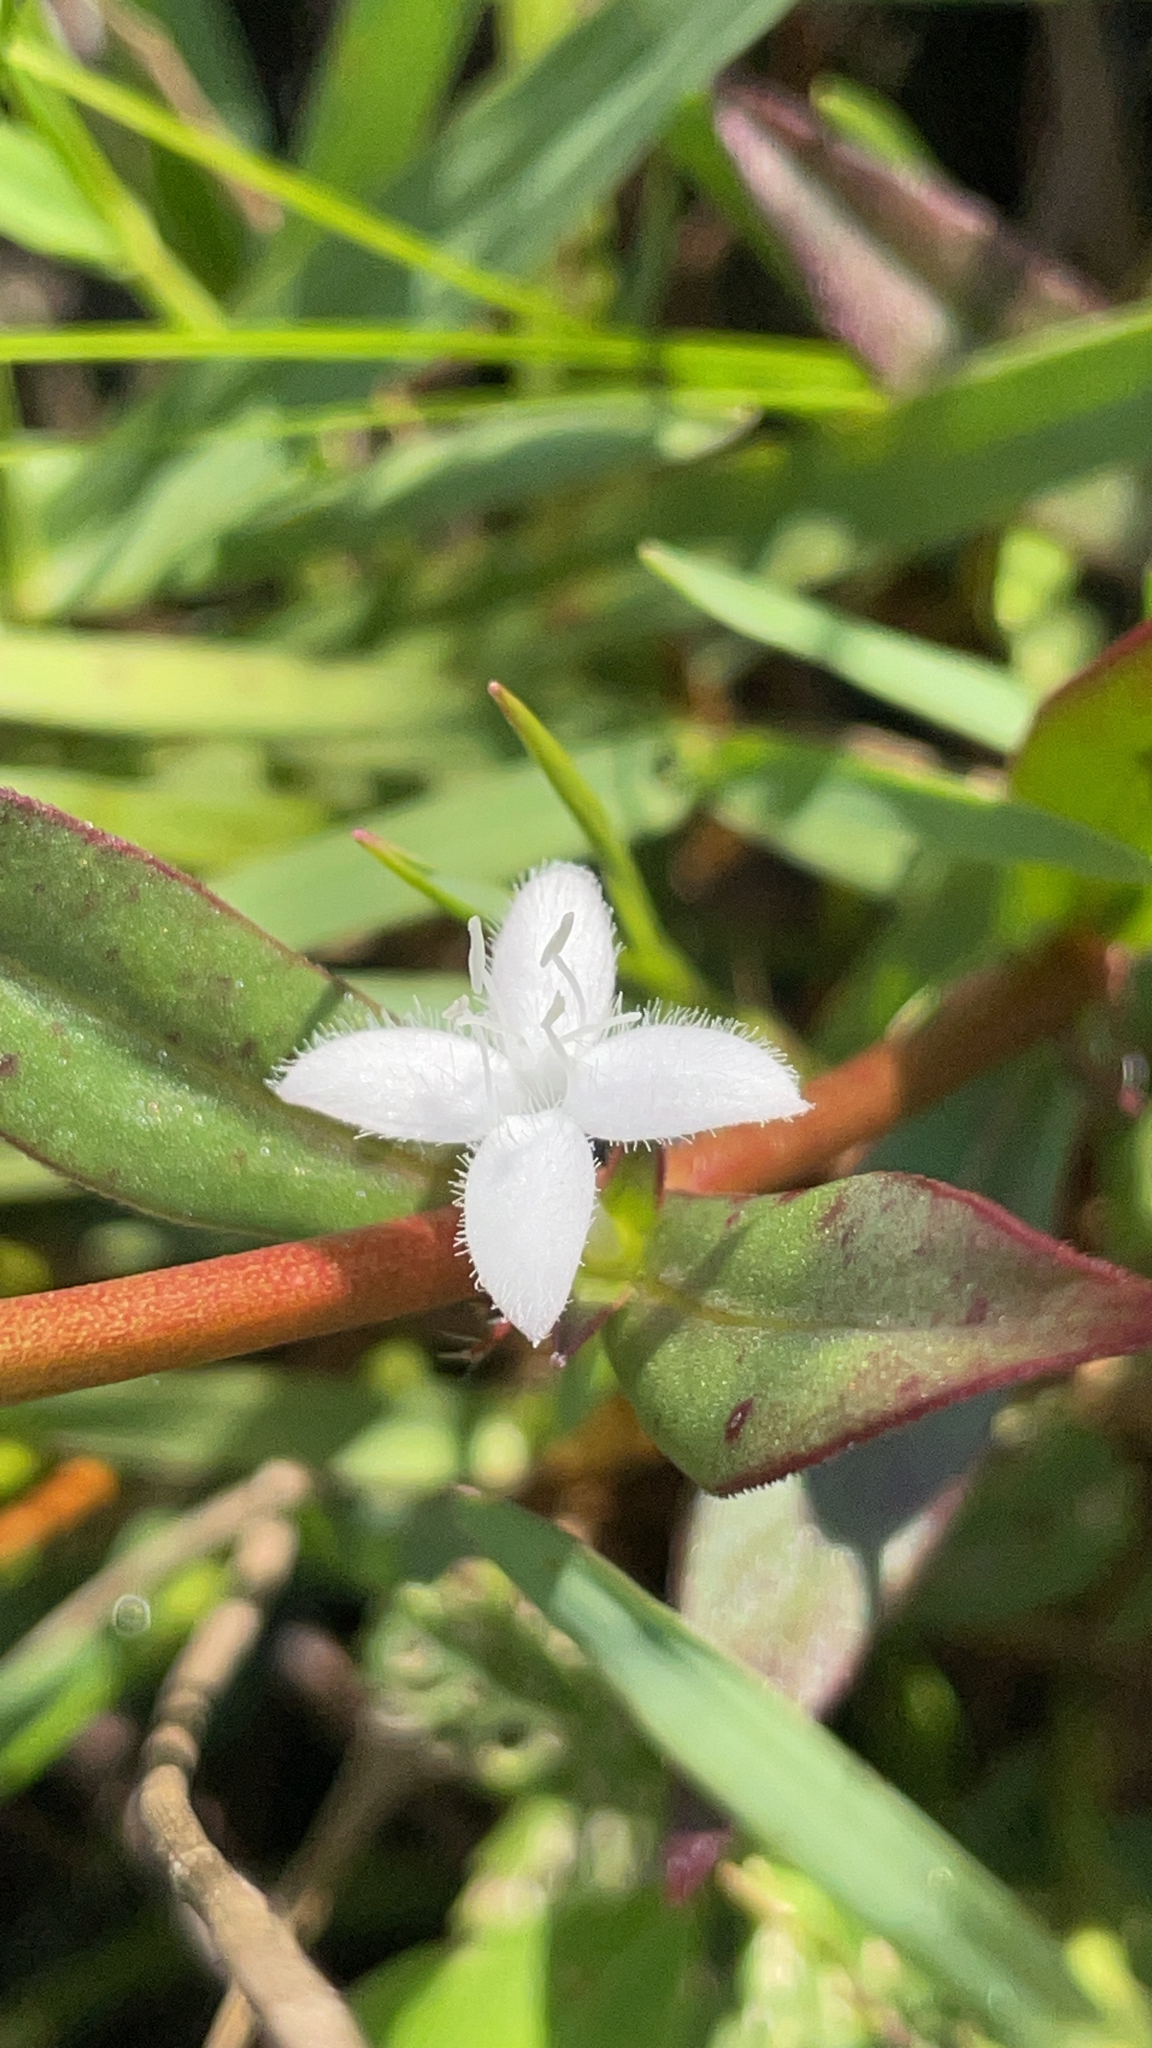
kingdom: Plantae
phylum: Tracheophyta
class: Magnoliopsida
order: Gentianales
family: Rubiaceae
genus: Diodia
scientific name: Diodia virginiana
